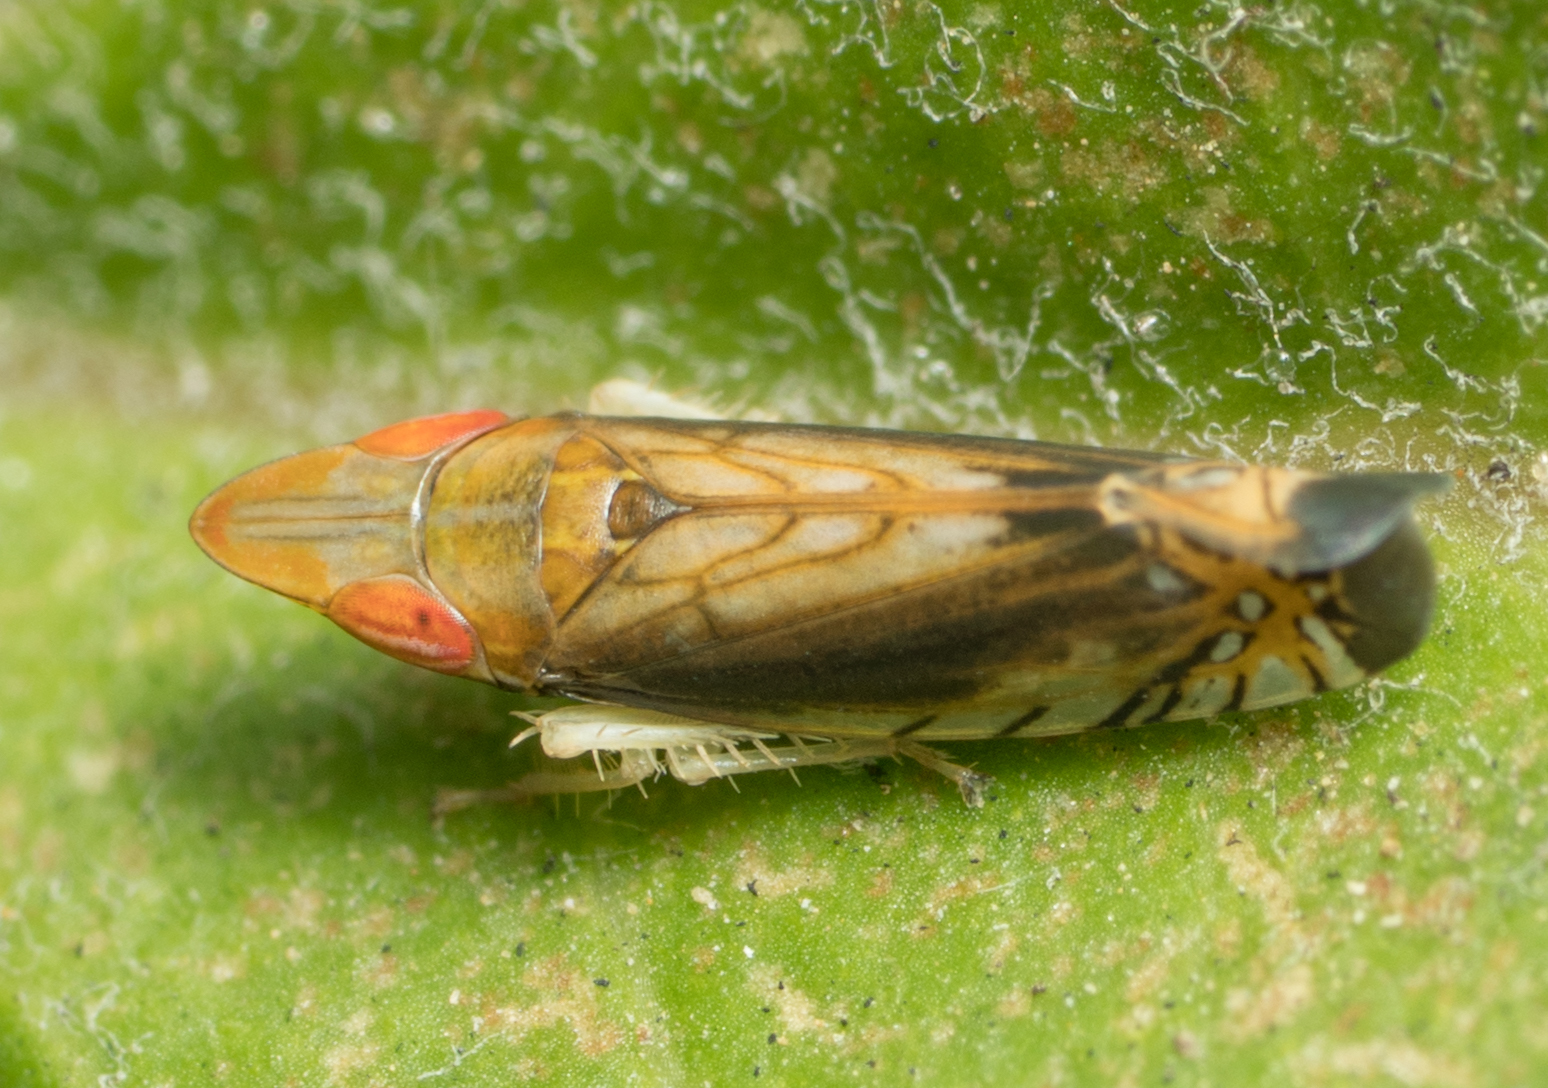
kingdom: Animalia
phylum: Arthropoda
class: Insecta
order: Hemiptera
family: Cicadellidae
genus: Scaphytopius
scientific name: Scaphytopius majestus
